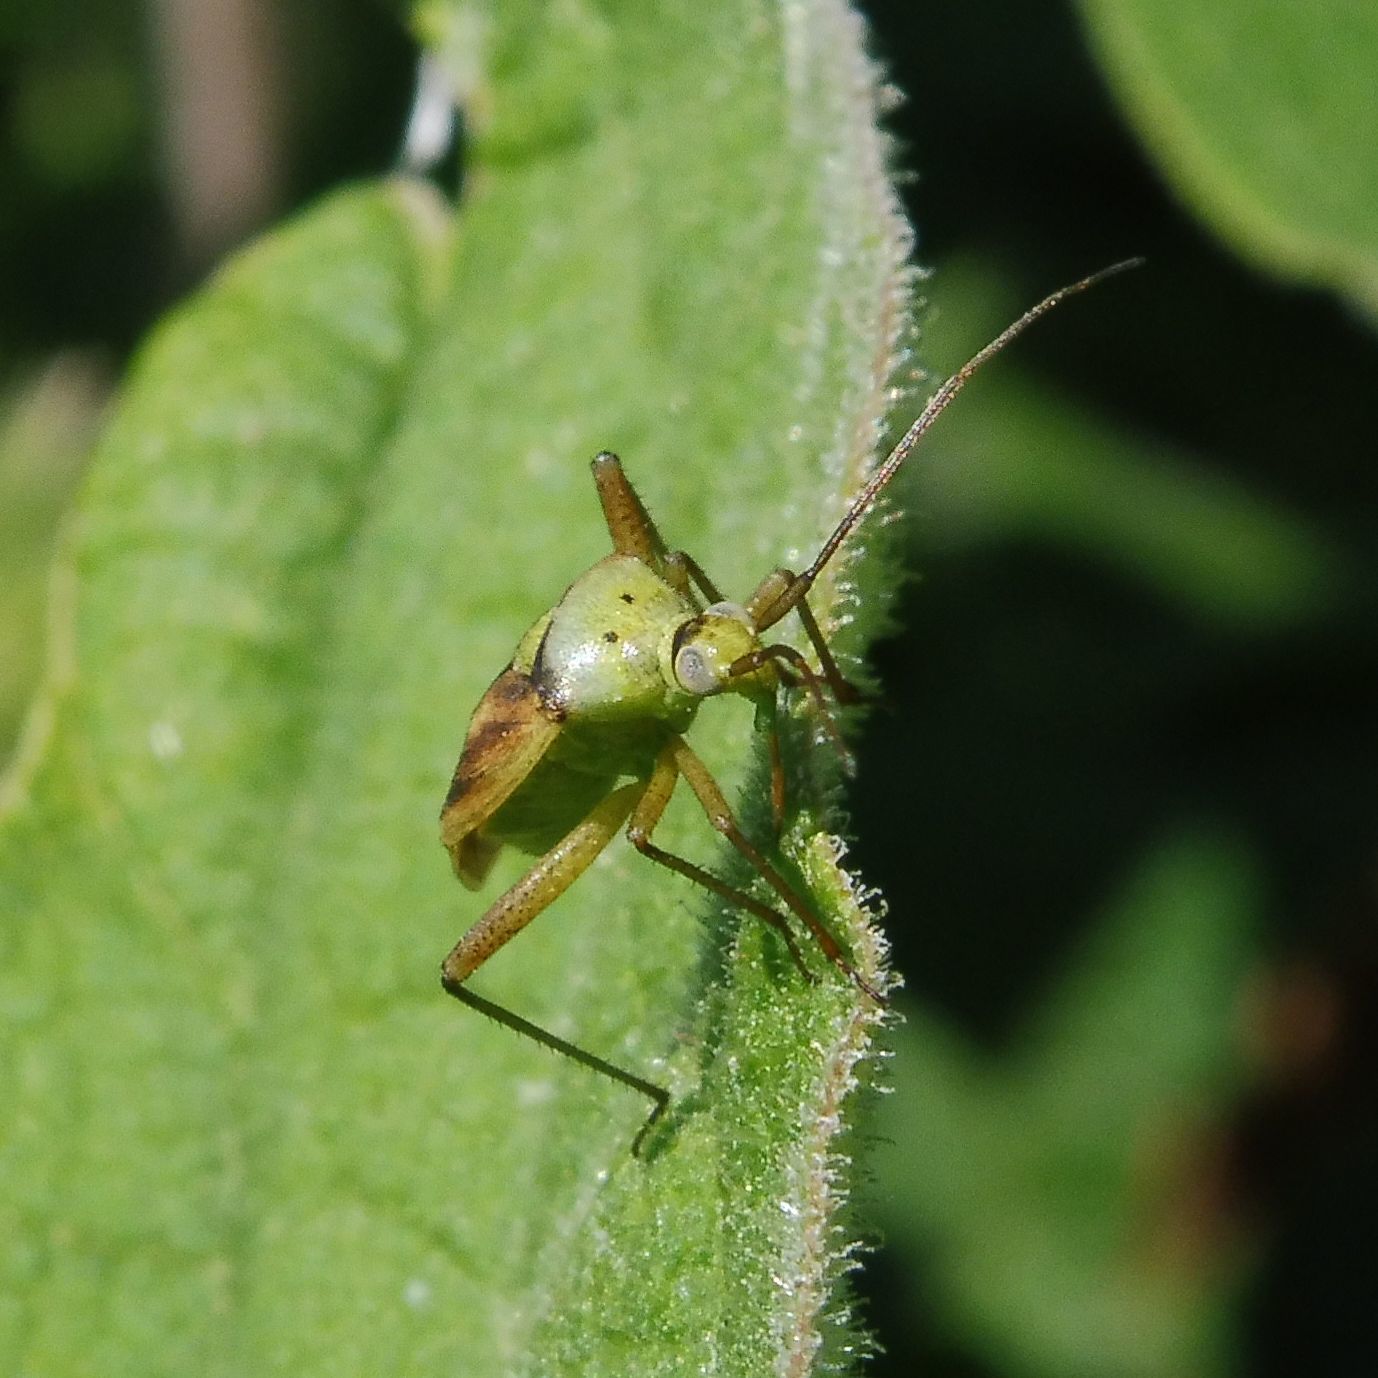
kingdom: Animalia
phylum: Arthropoda
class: Insecta
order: Hemiptera
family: Miridae
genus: Closterotomus
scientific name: Closterotomus norvegicus
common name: Plant bug
